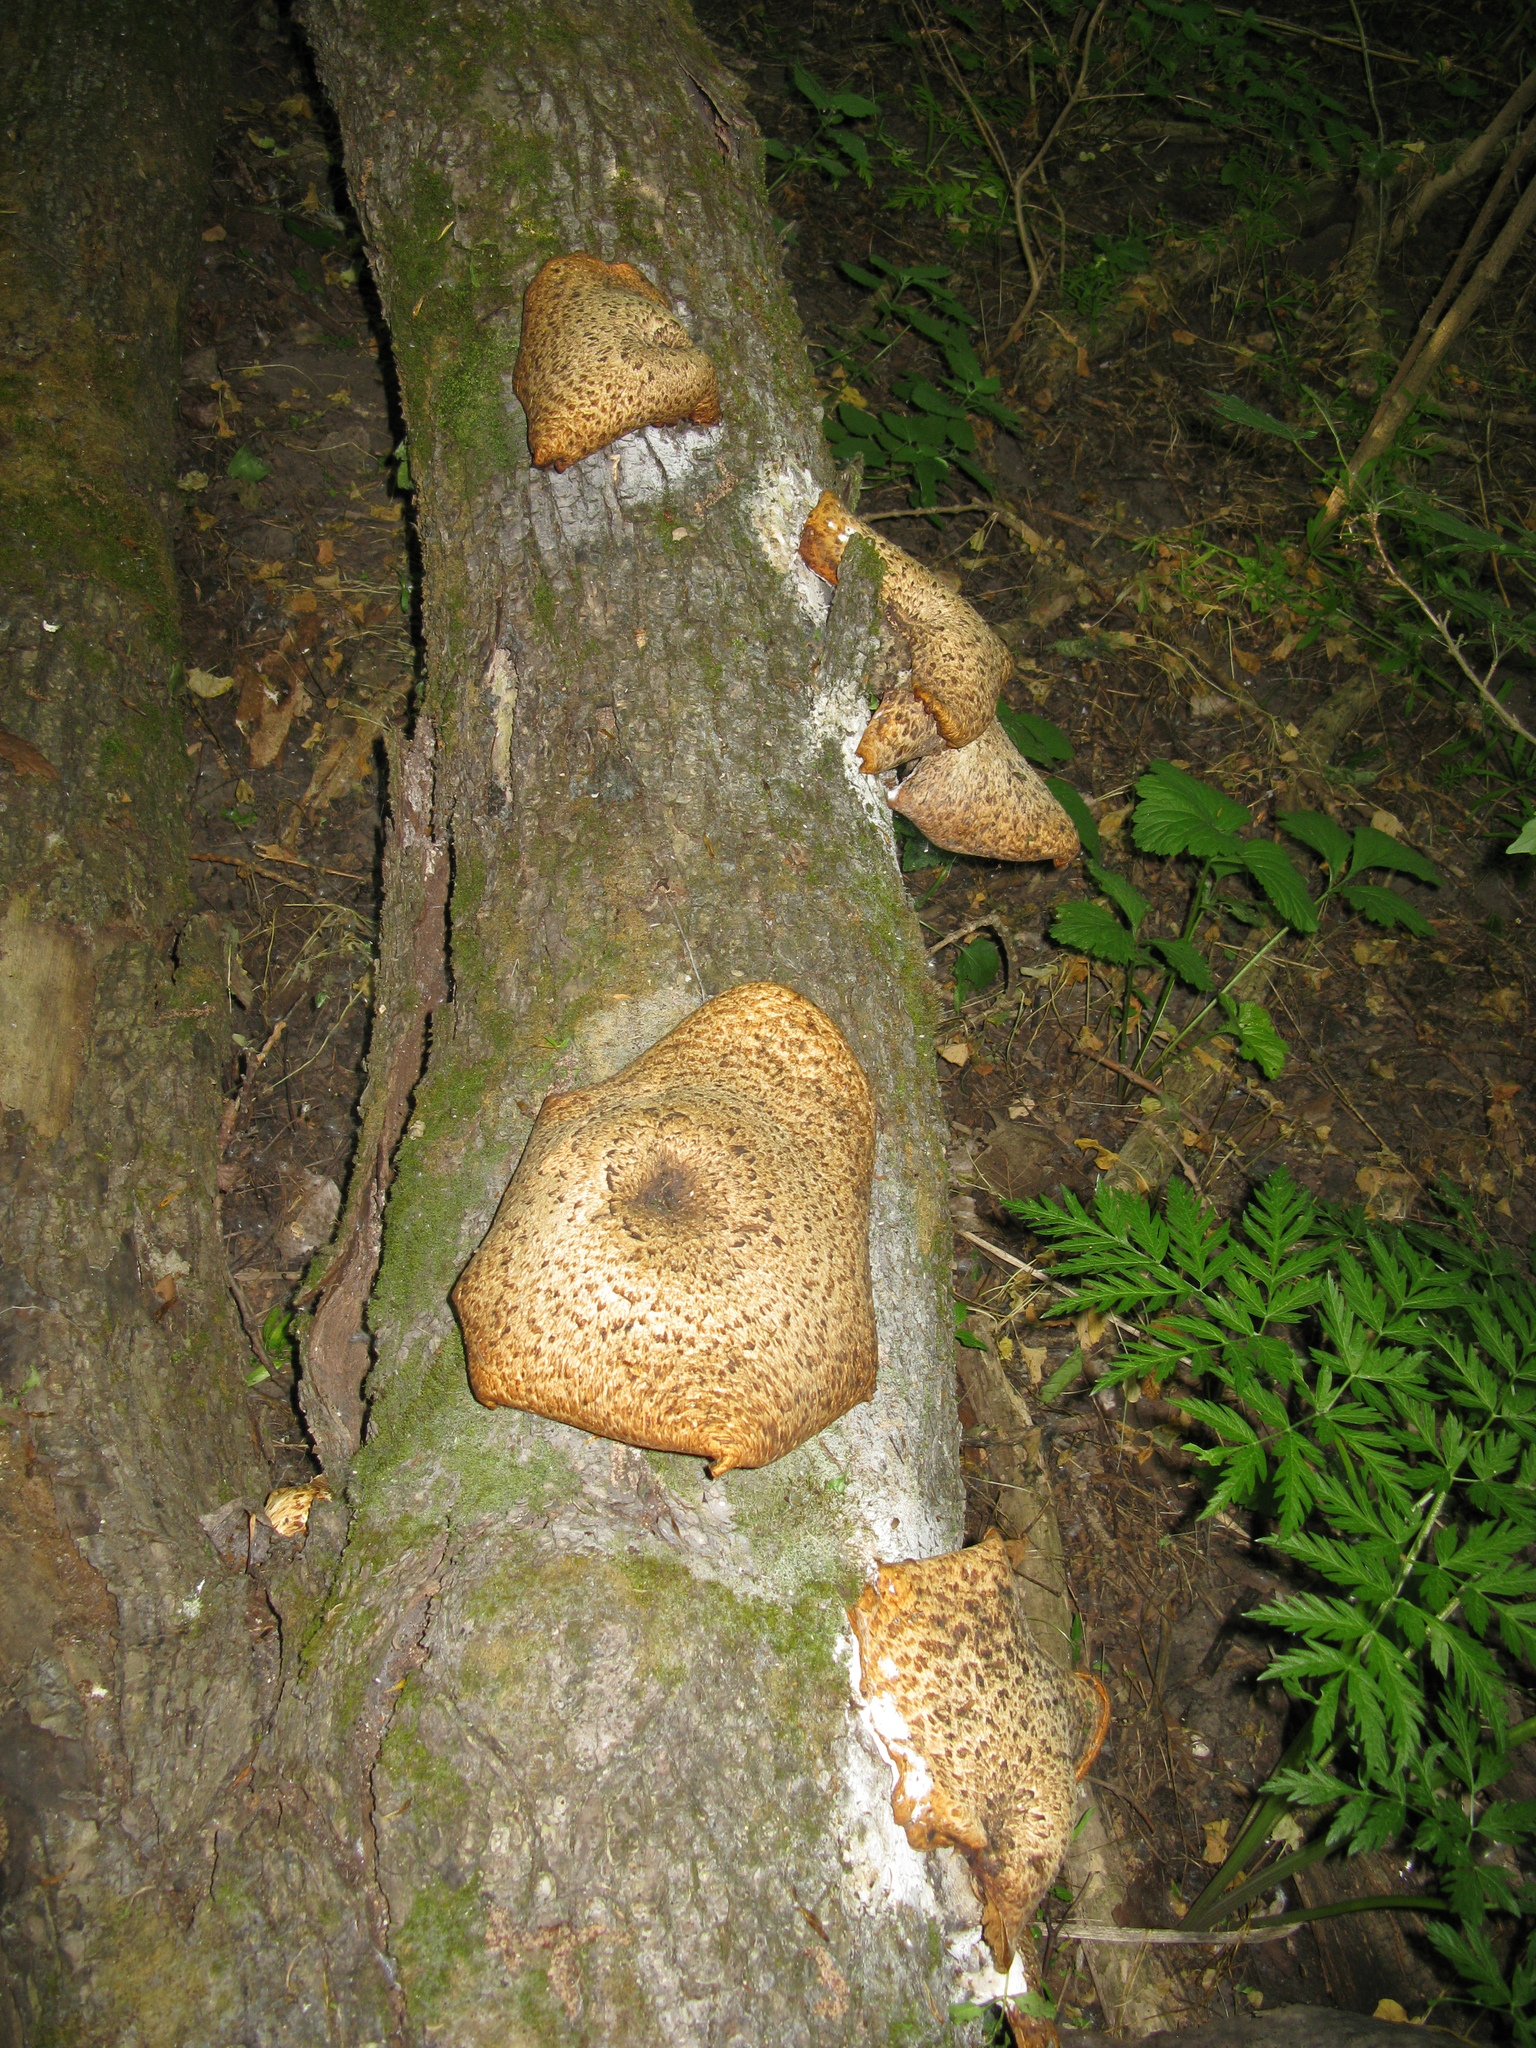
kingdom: Fungi
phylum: Basidiomycota
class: Agaricomycetes
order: Polyporales
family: Polyporaceae
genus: Cerioporus
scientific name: Cerioporus squamosus
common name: Dryad's saddle
